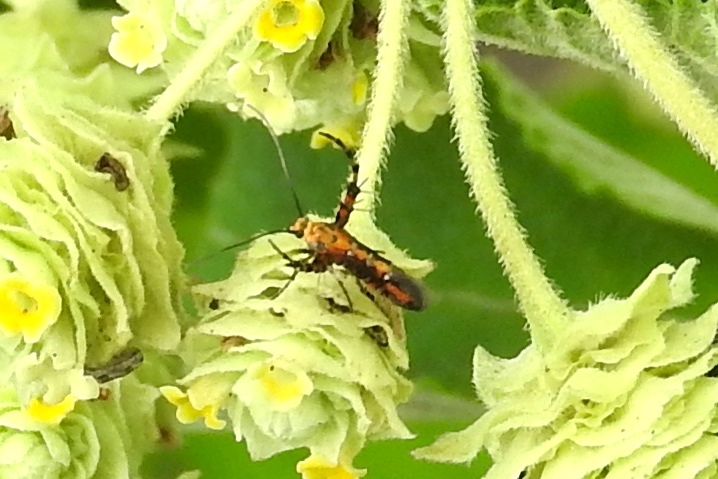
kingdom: Animalia
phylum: Arthropoda
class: Insecta
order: Lepidoptera
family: Heliodinidae
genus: Heliodines
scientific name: Heliodines
